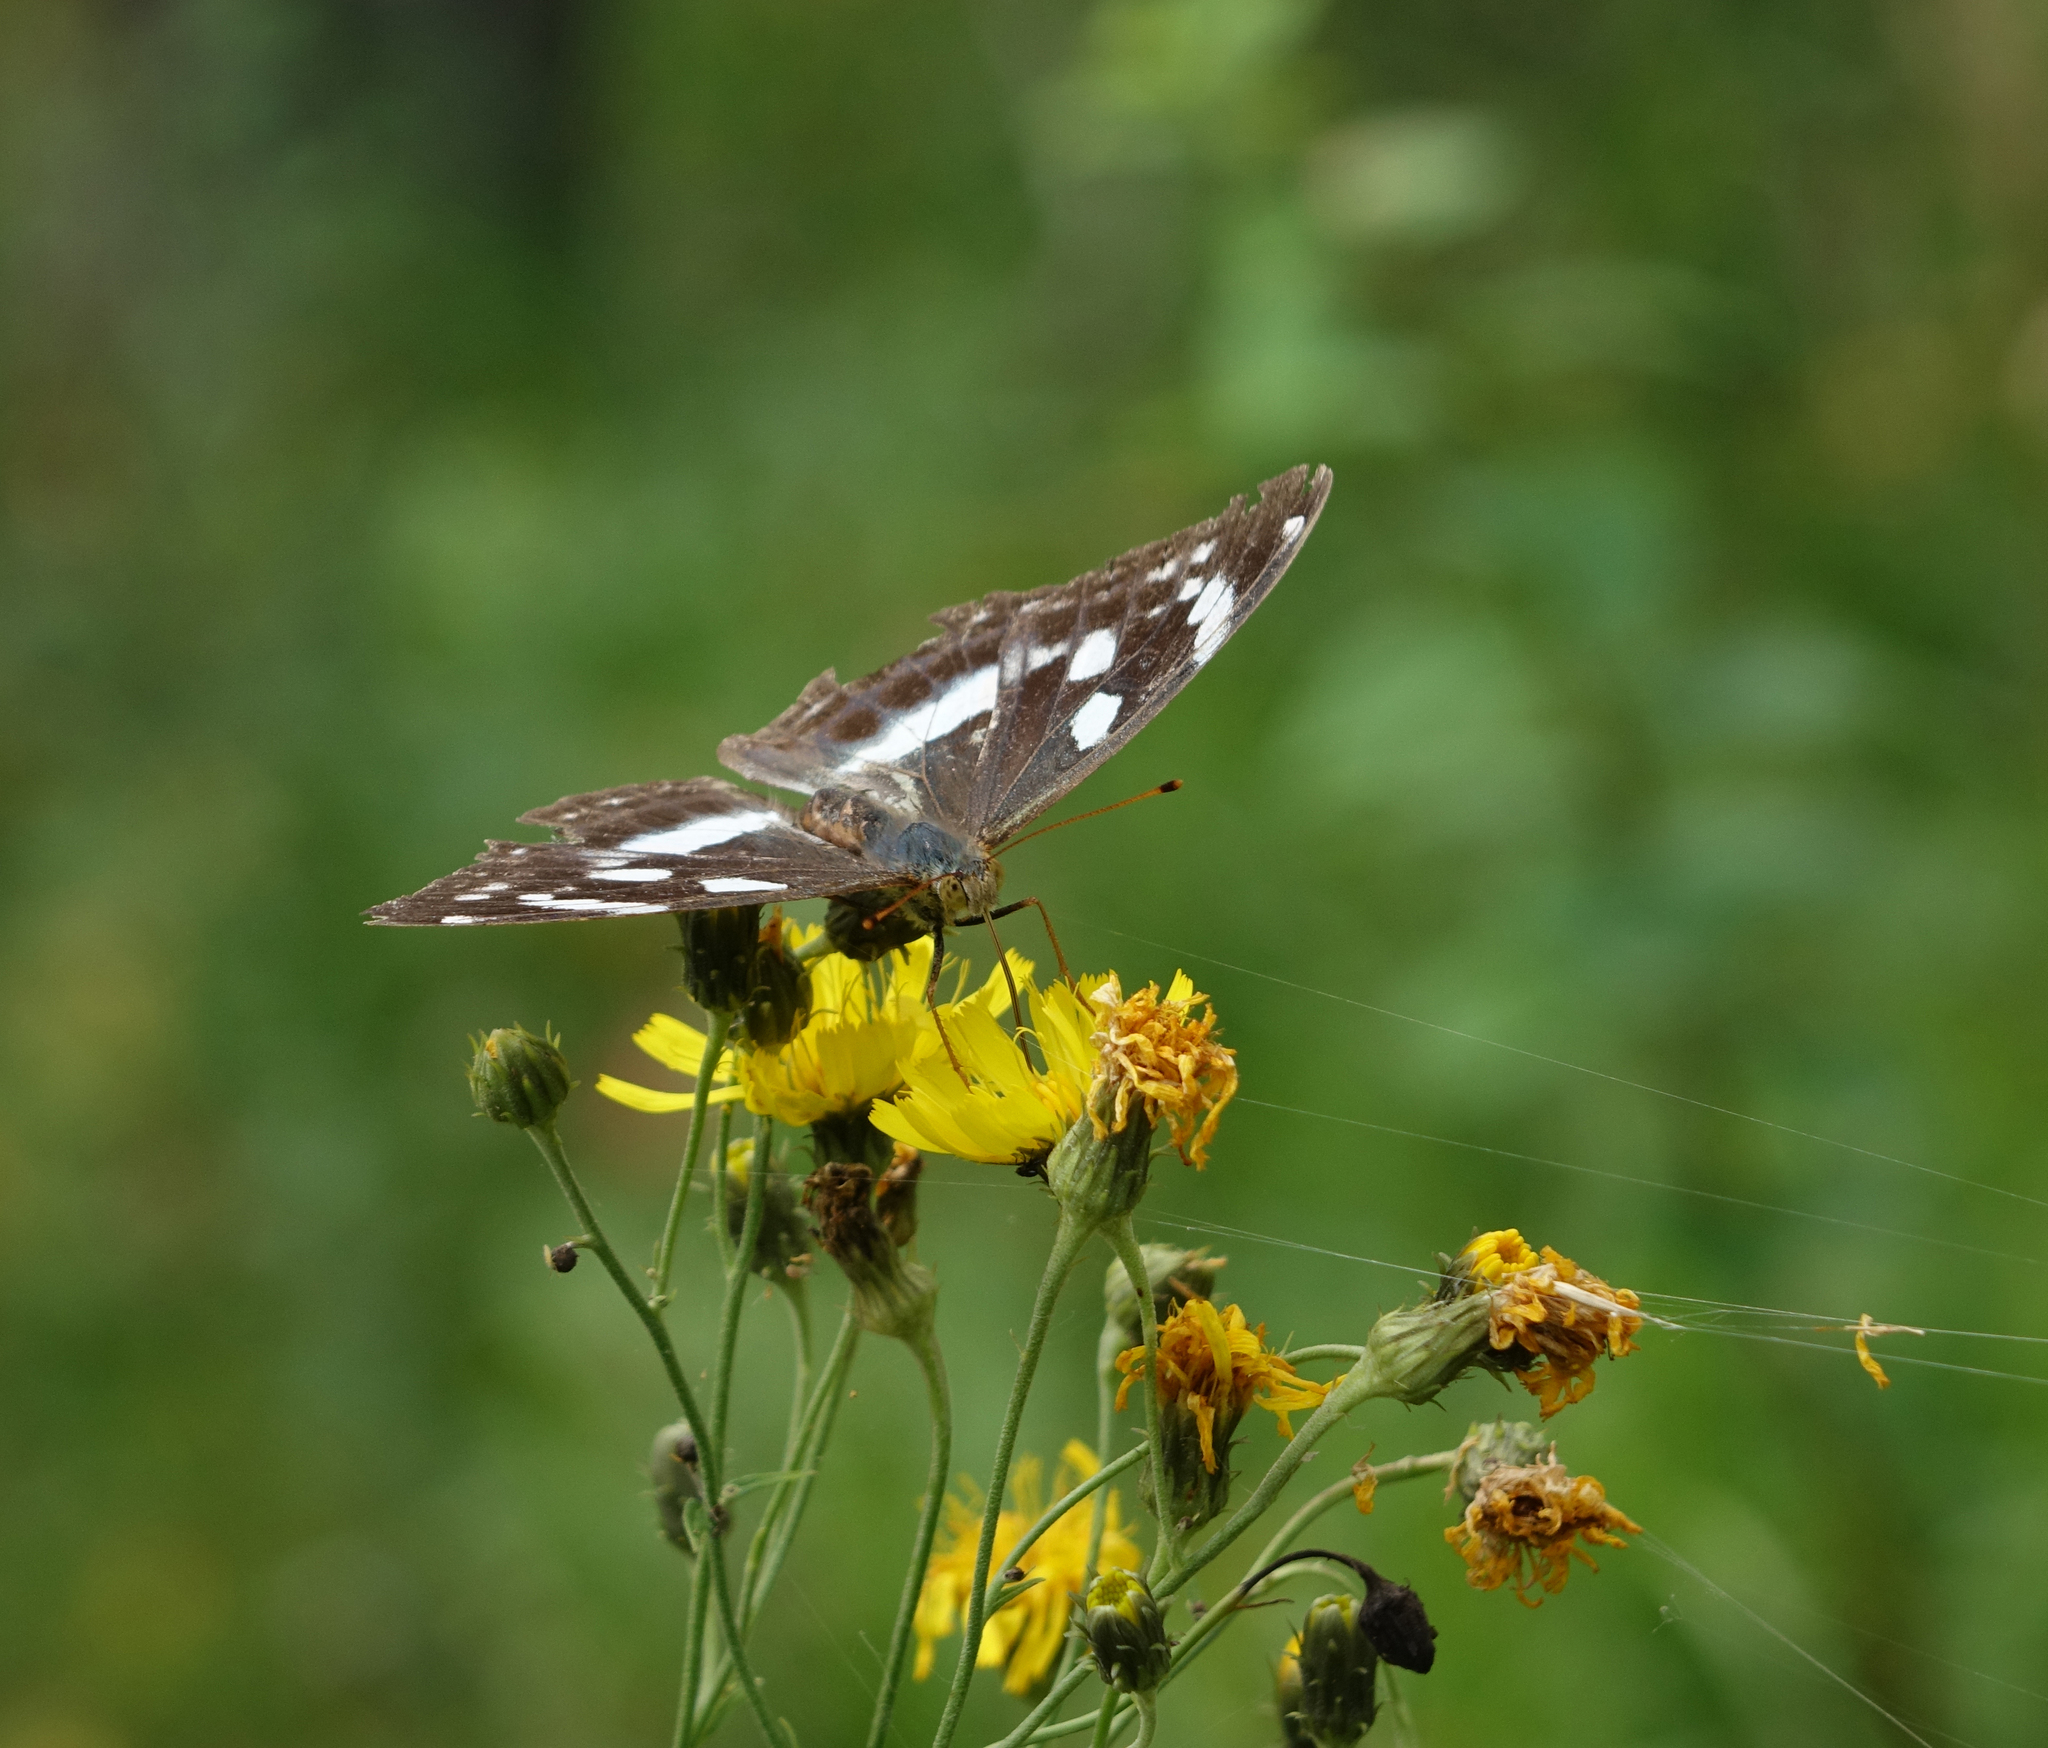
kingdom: Animalia
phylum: Arthropoda
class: Insecta
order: Lepidoptera
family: Nymphalidae
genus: Damora
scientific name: Damora sagana
